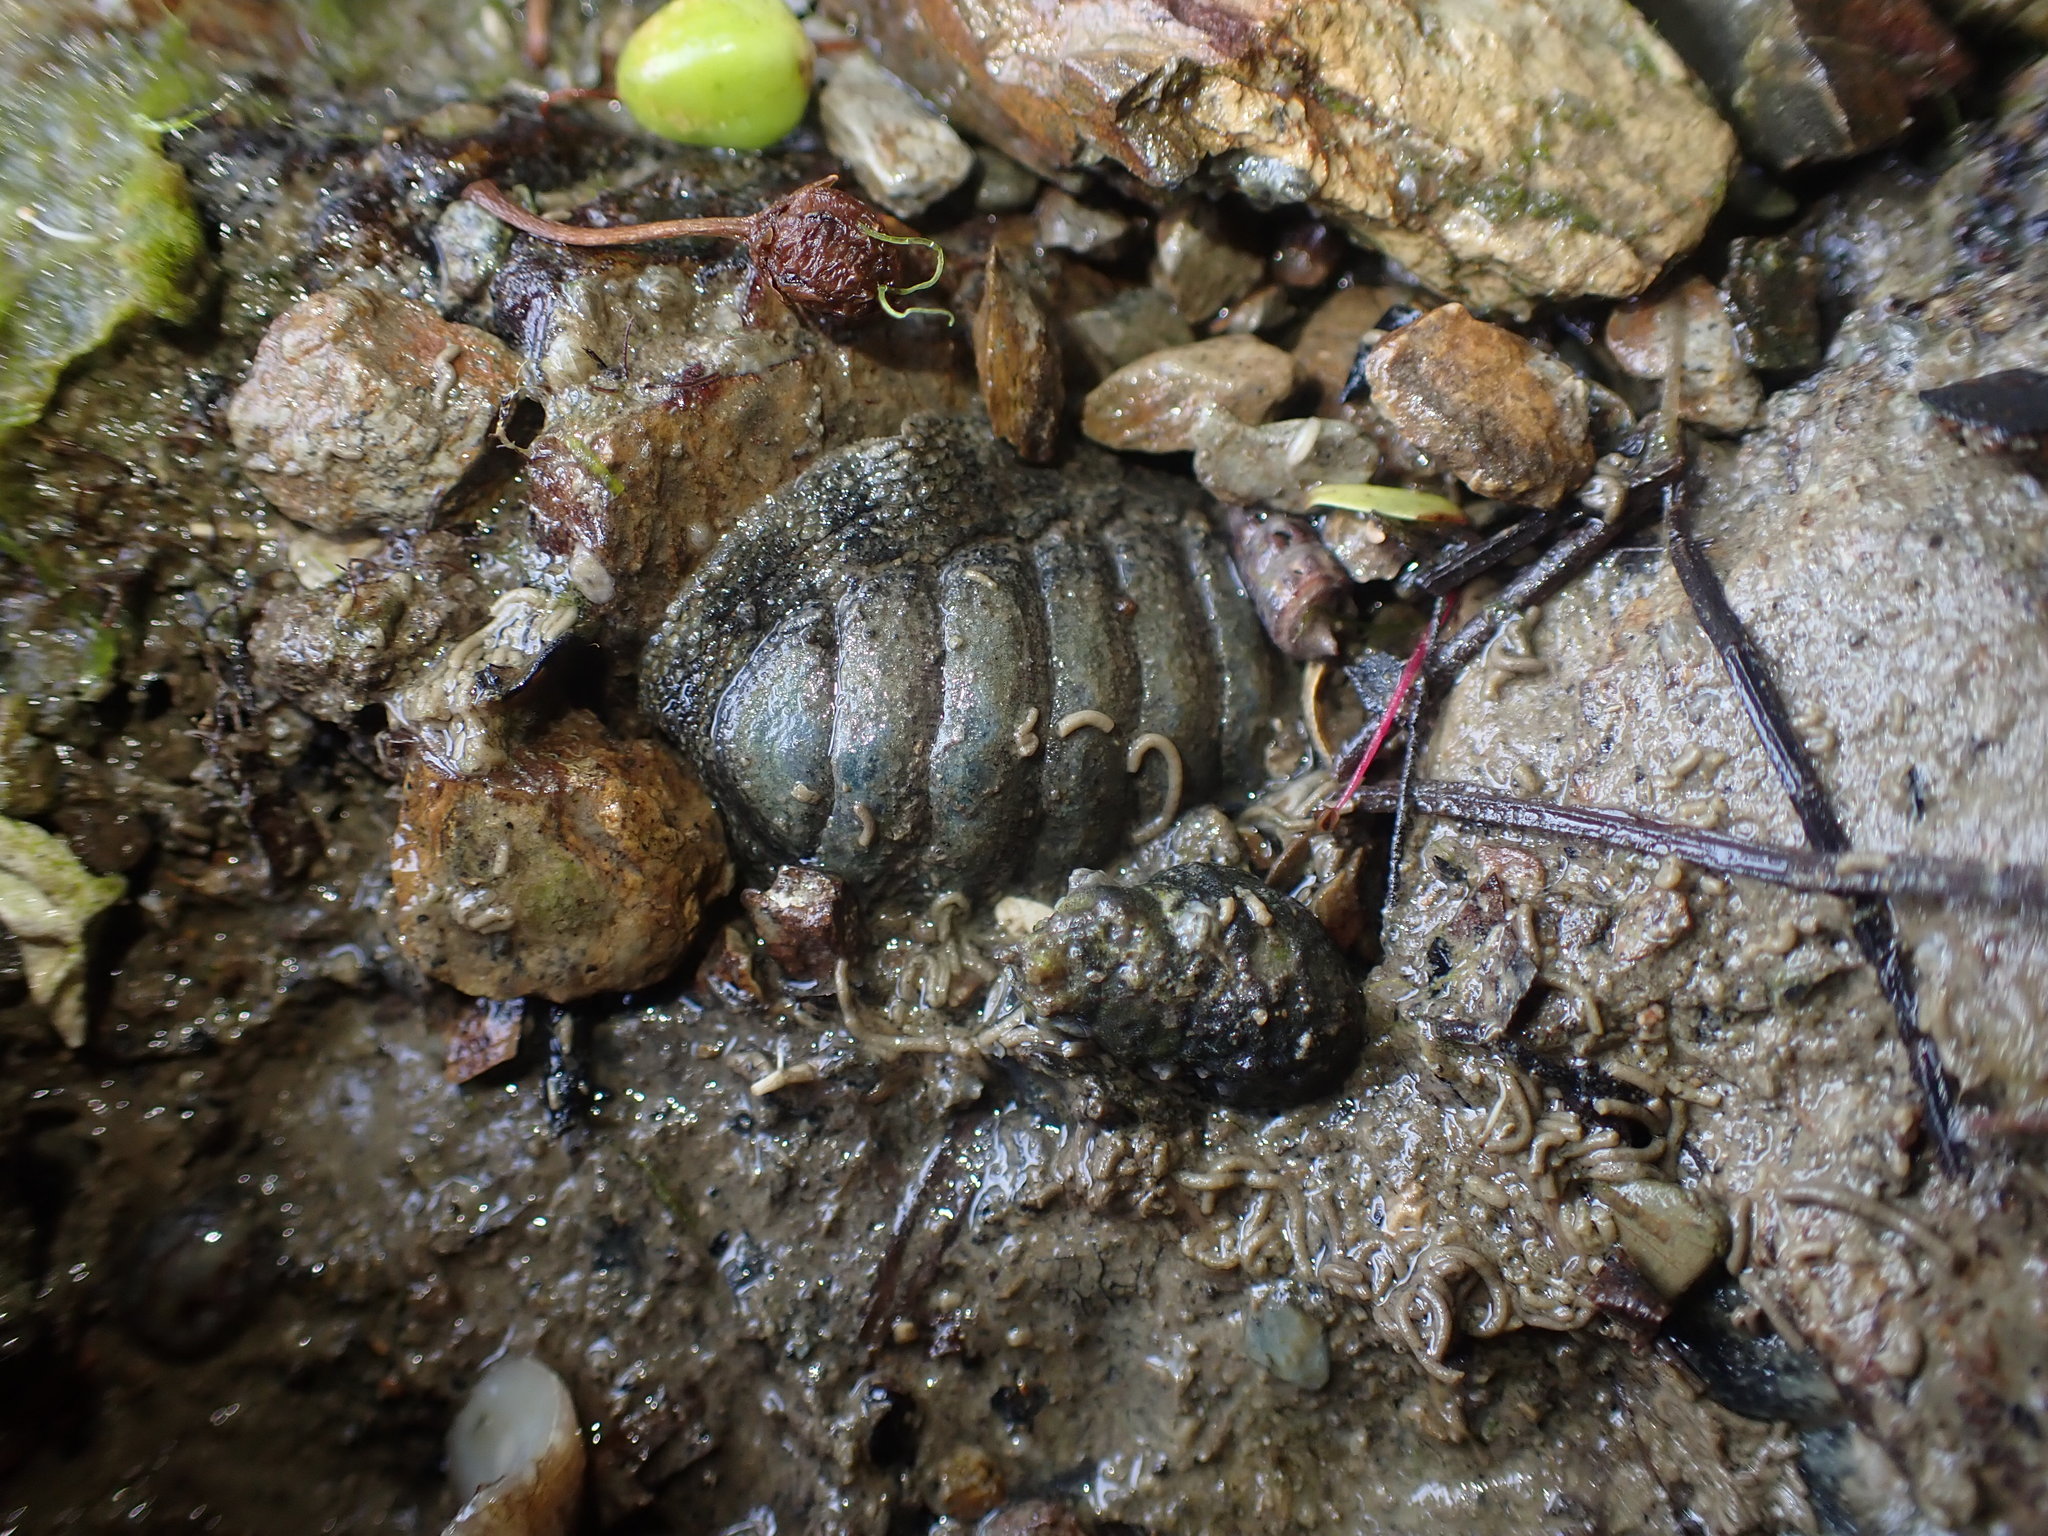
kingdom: Animalia
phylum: Mollusca
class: Polyplacophora
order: Chitonida
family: Chitonidae
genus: Sypharochiton
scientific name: Sypharochiton pelliserpentis
